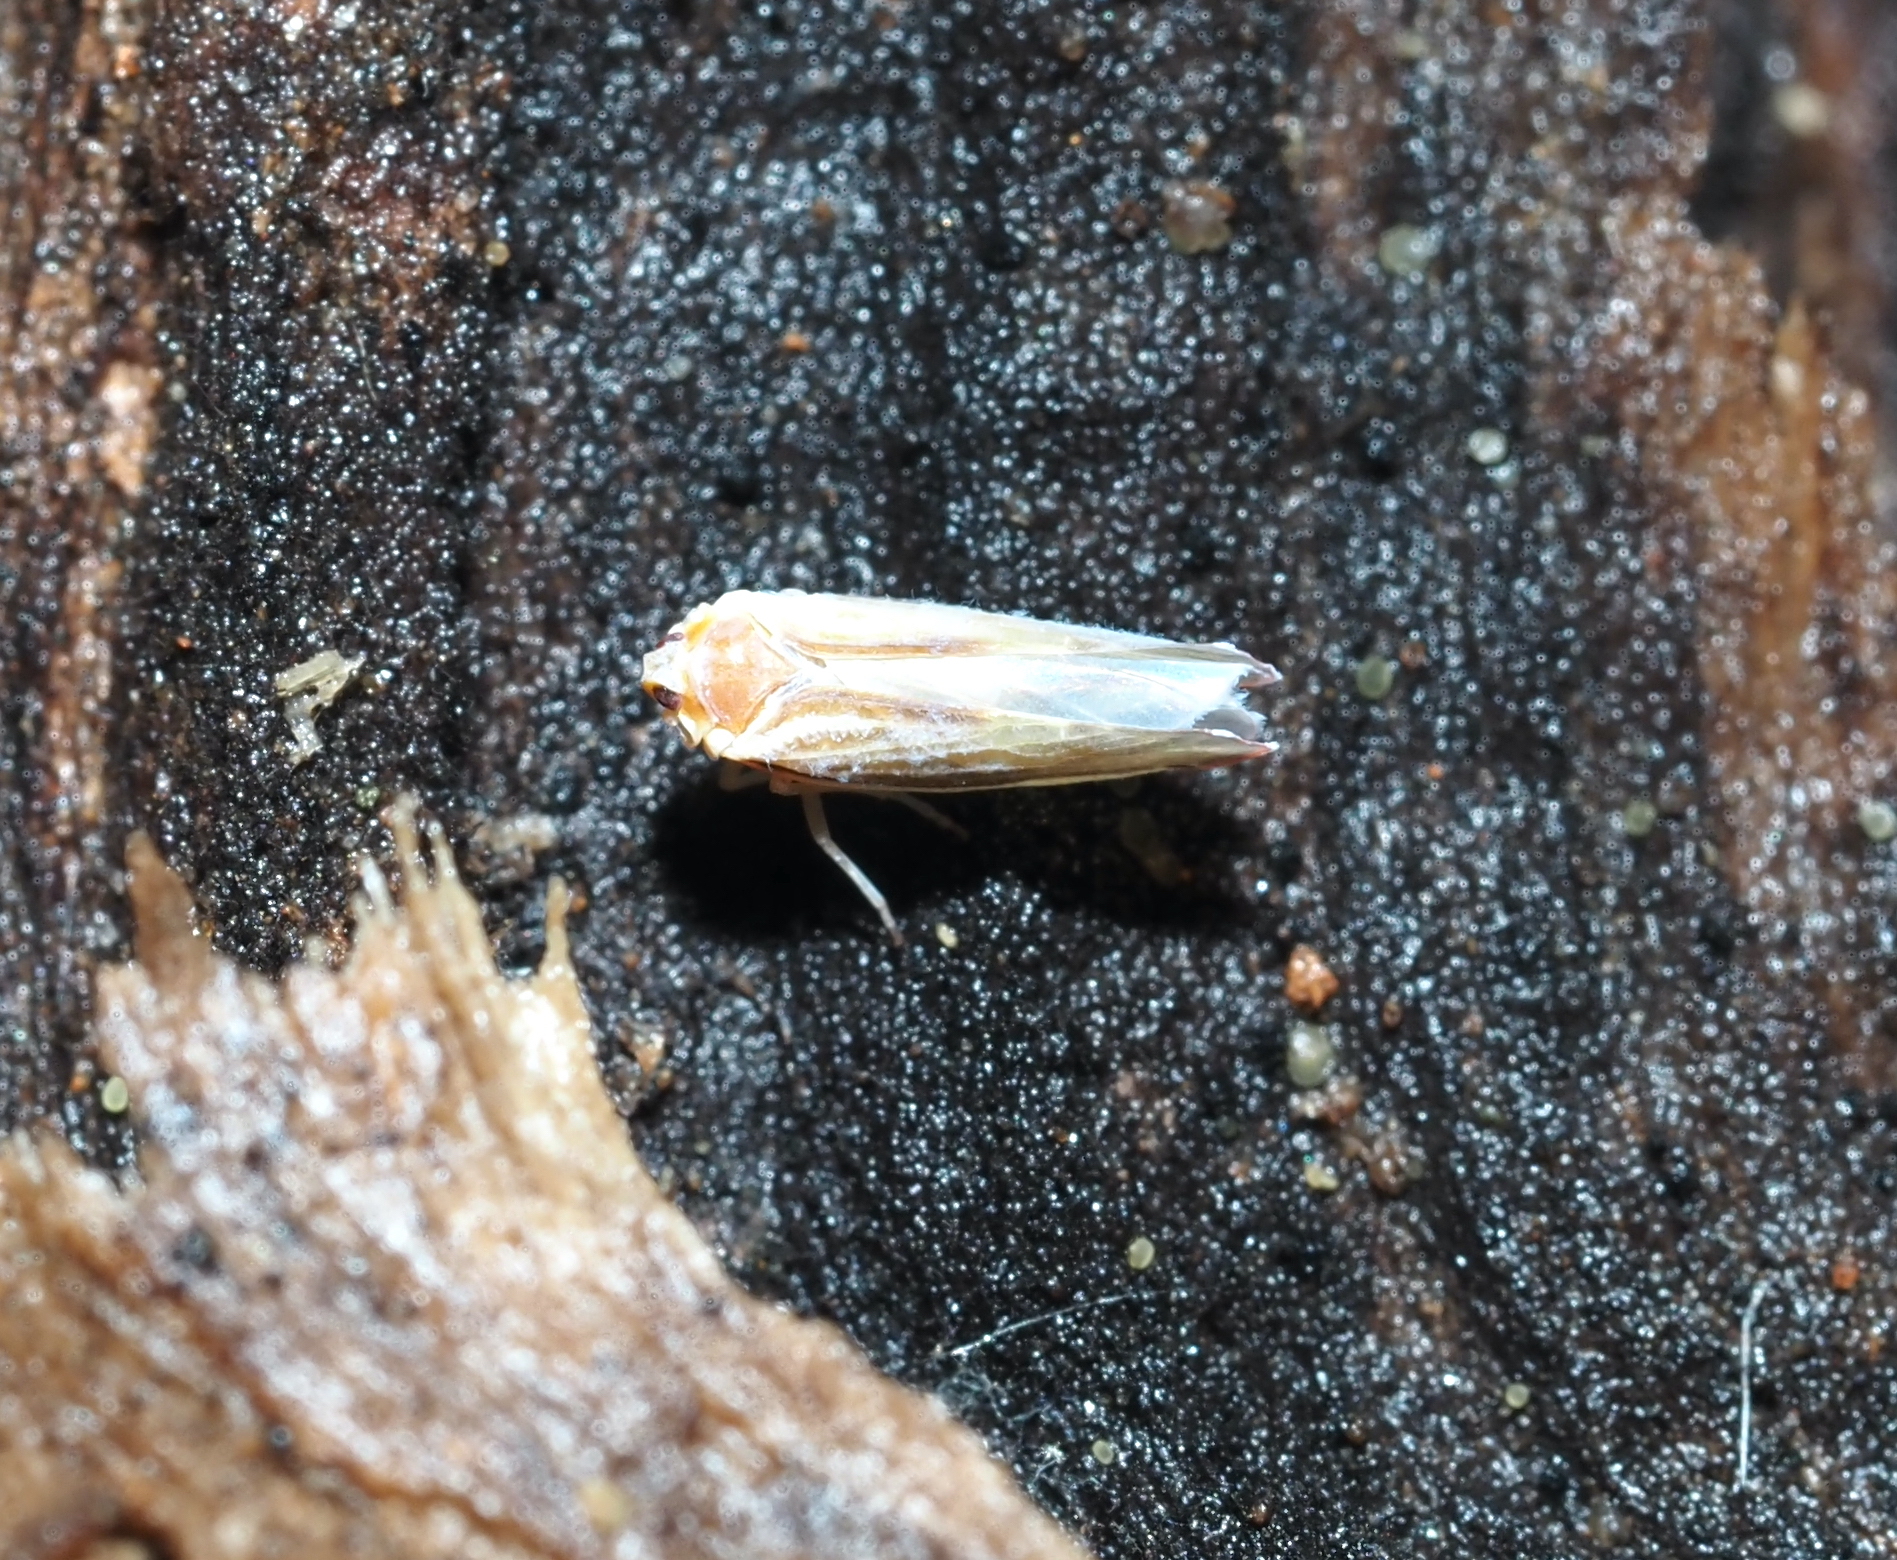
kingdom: Animalia
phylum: Arthropoda
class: Insecta
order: Hemiptera
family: Derbidae
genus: Omolicna
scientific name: Omolicna uhleri
